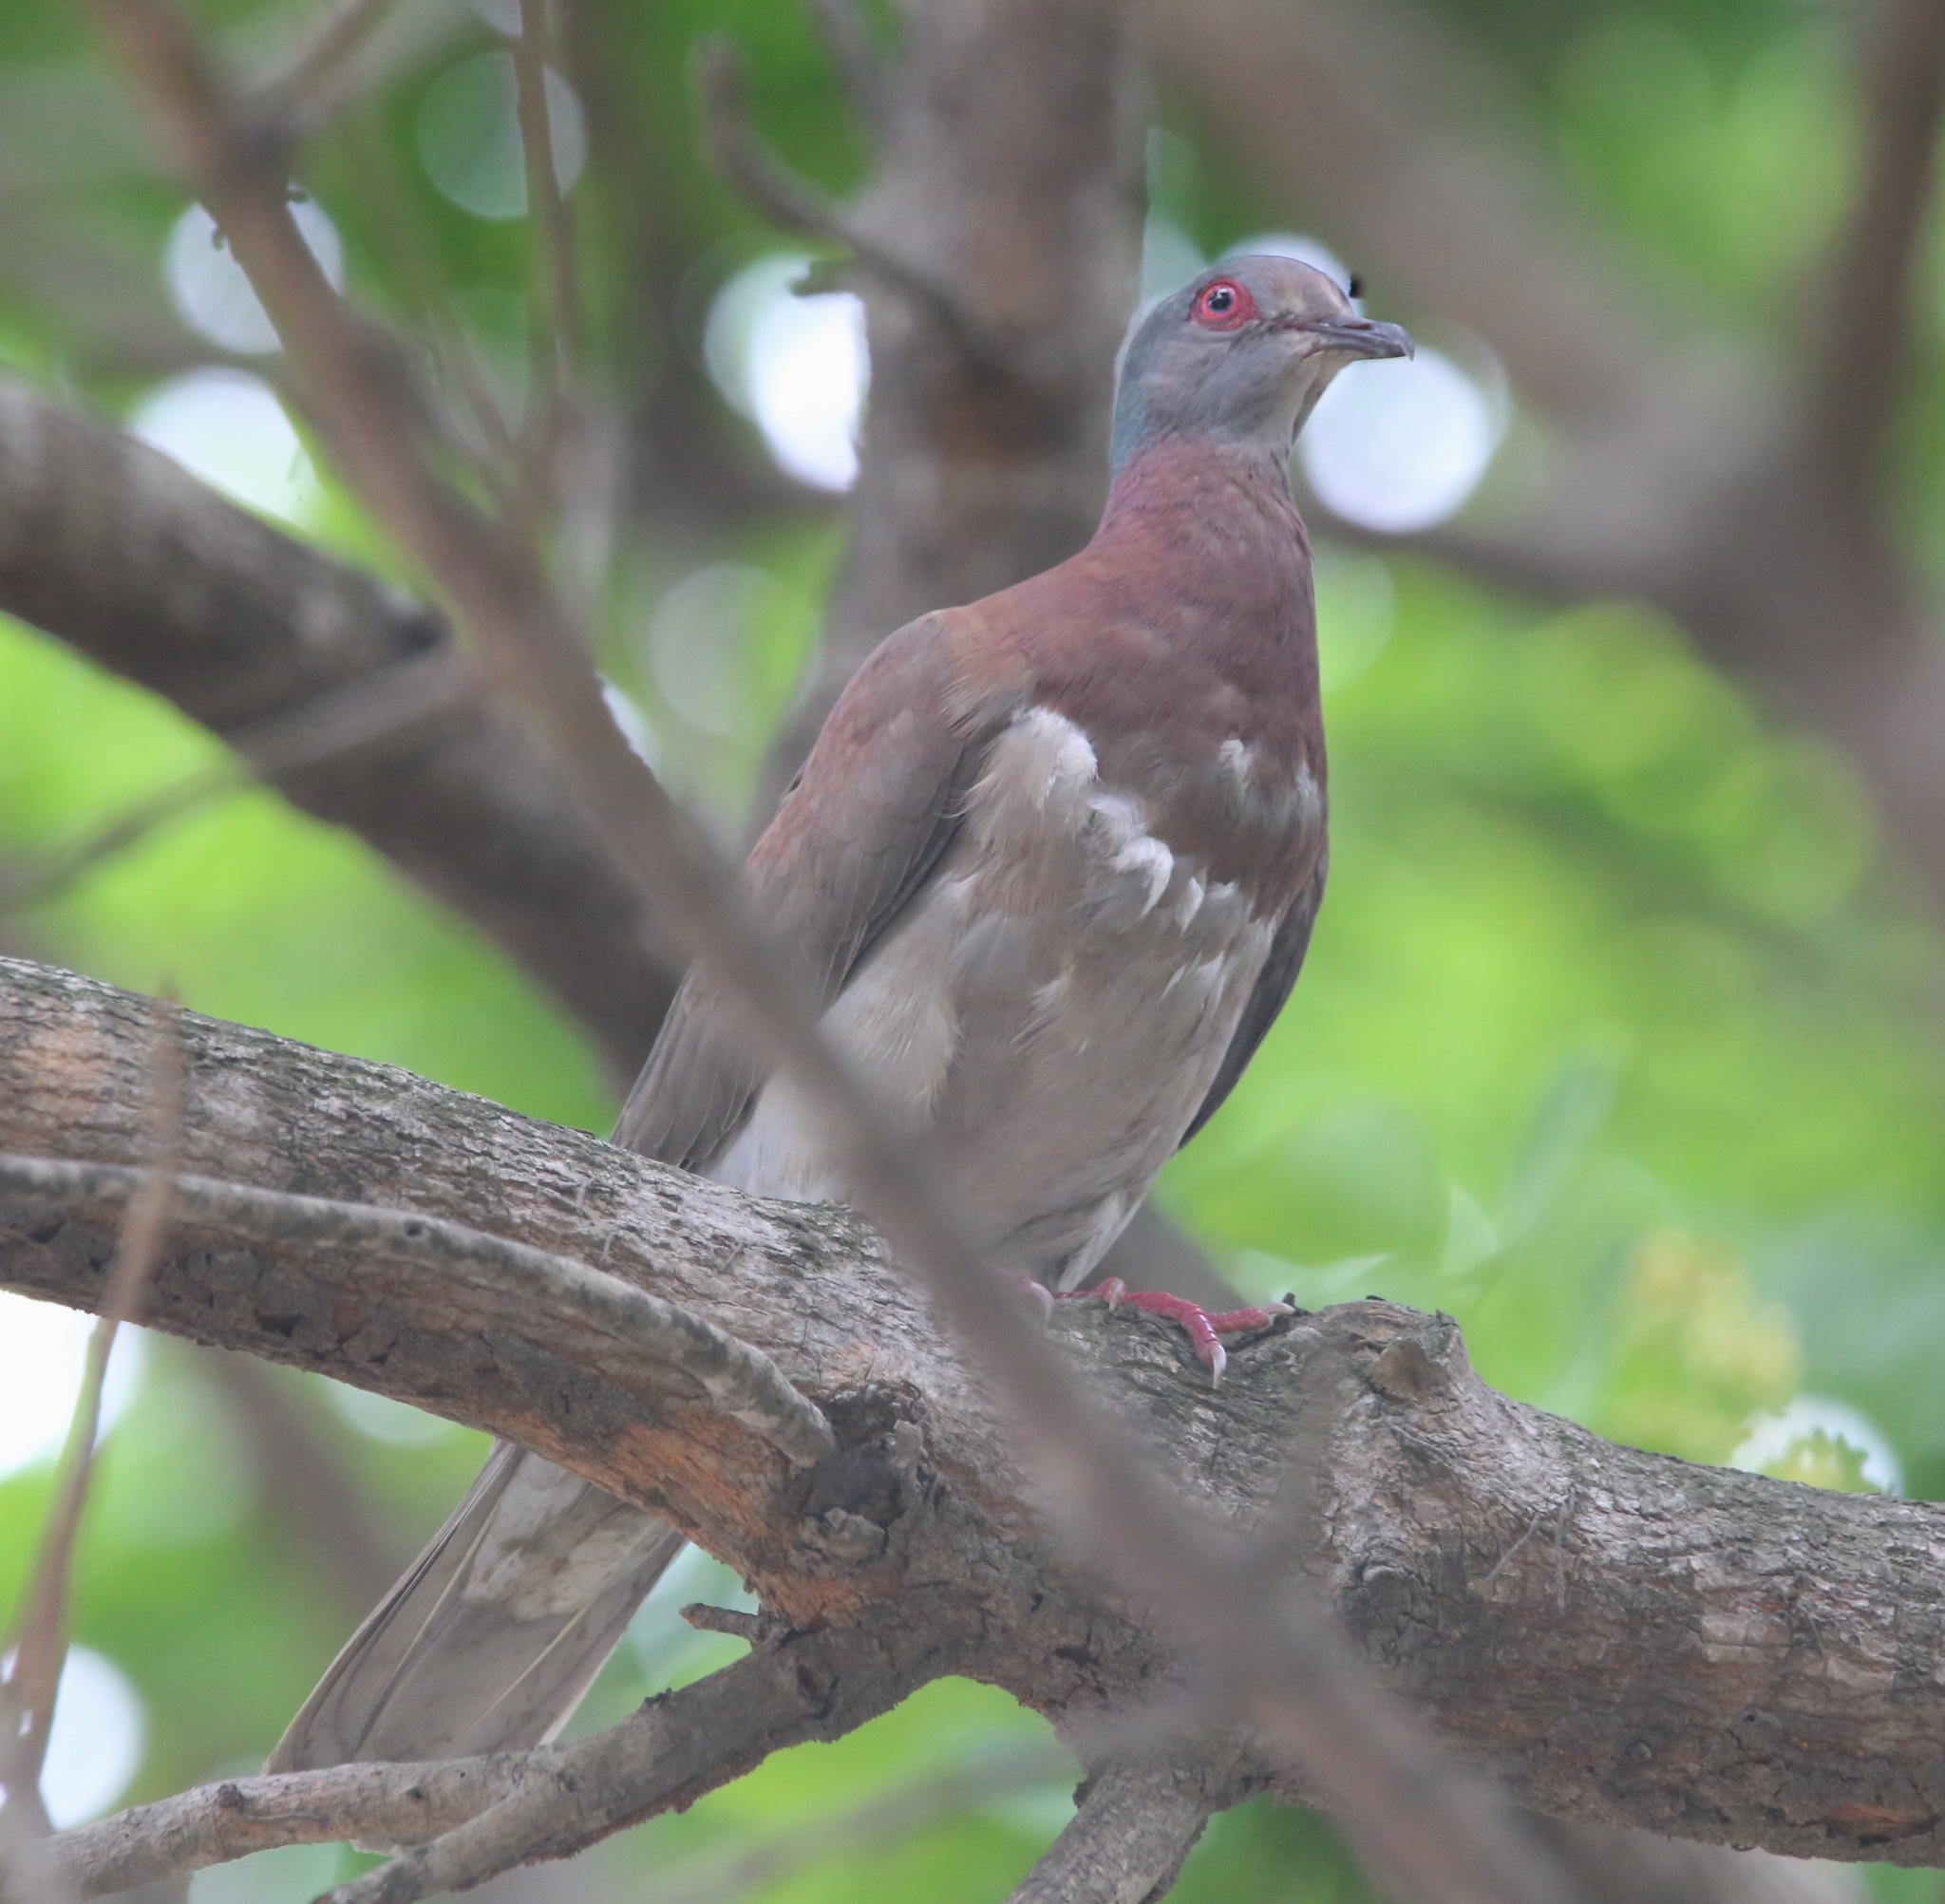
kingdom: Animalia
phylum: Chordata
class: Aves
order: Columbiformes
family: Columbidae
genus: Patagioenas
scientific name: Patagioenas cayennensis
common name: Pale-vented pigeon
